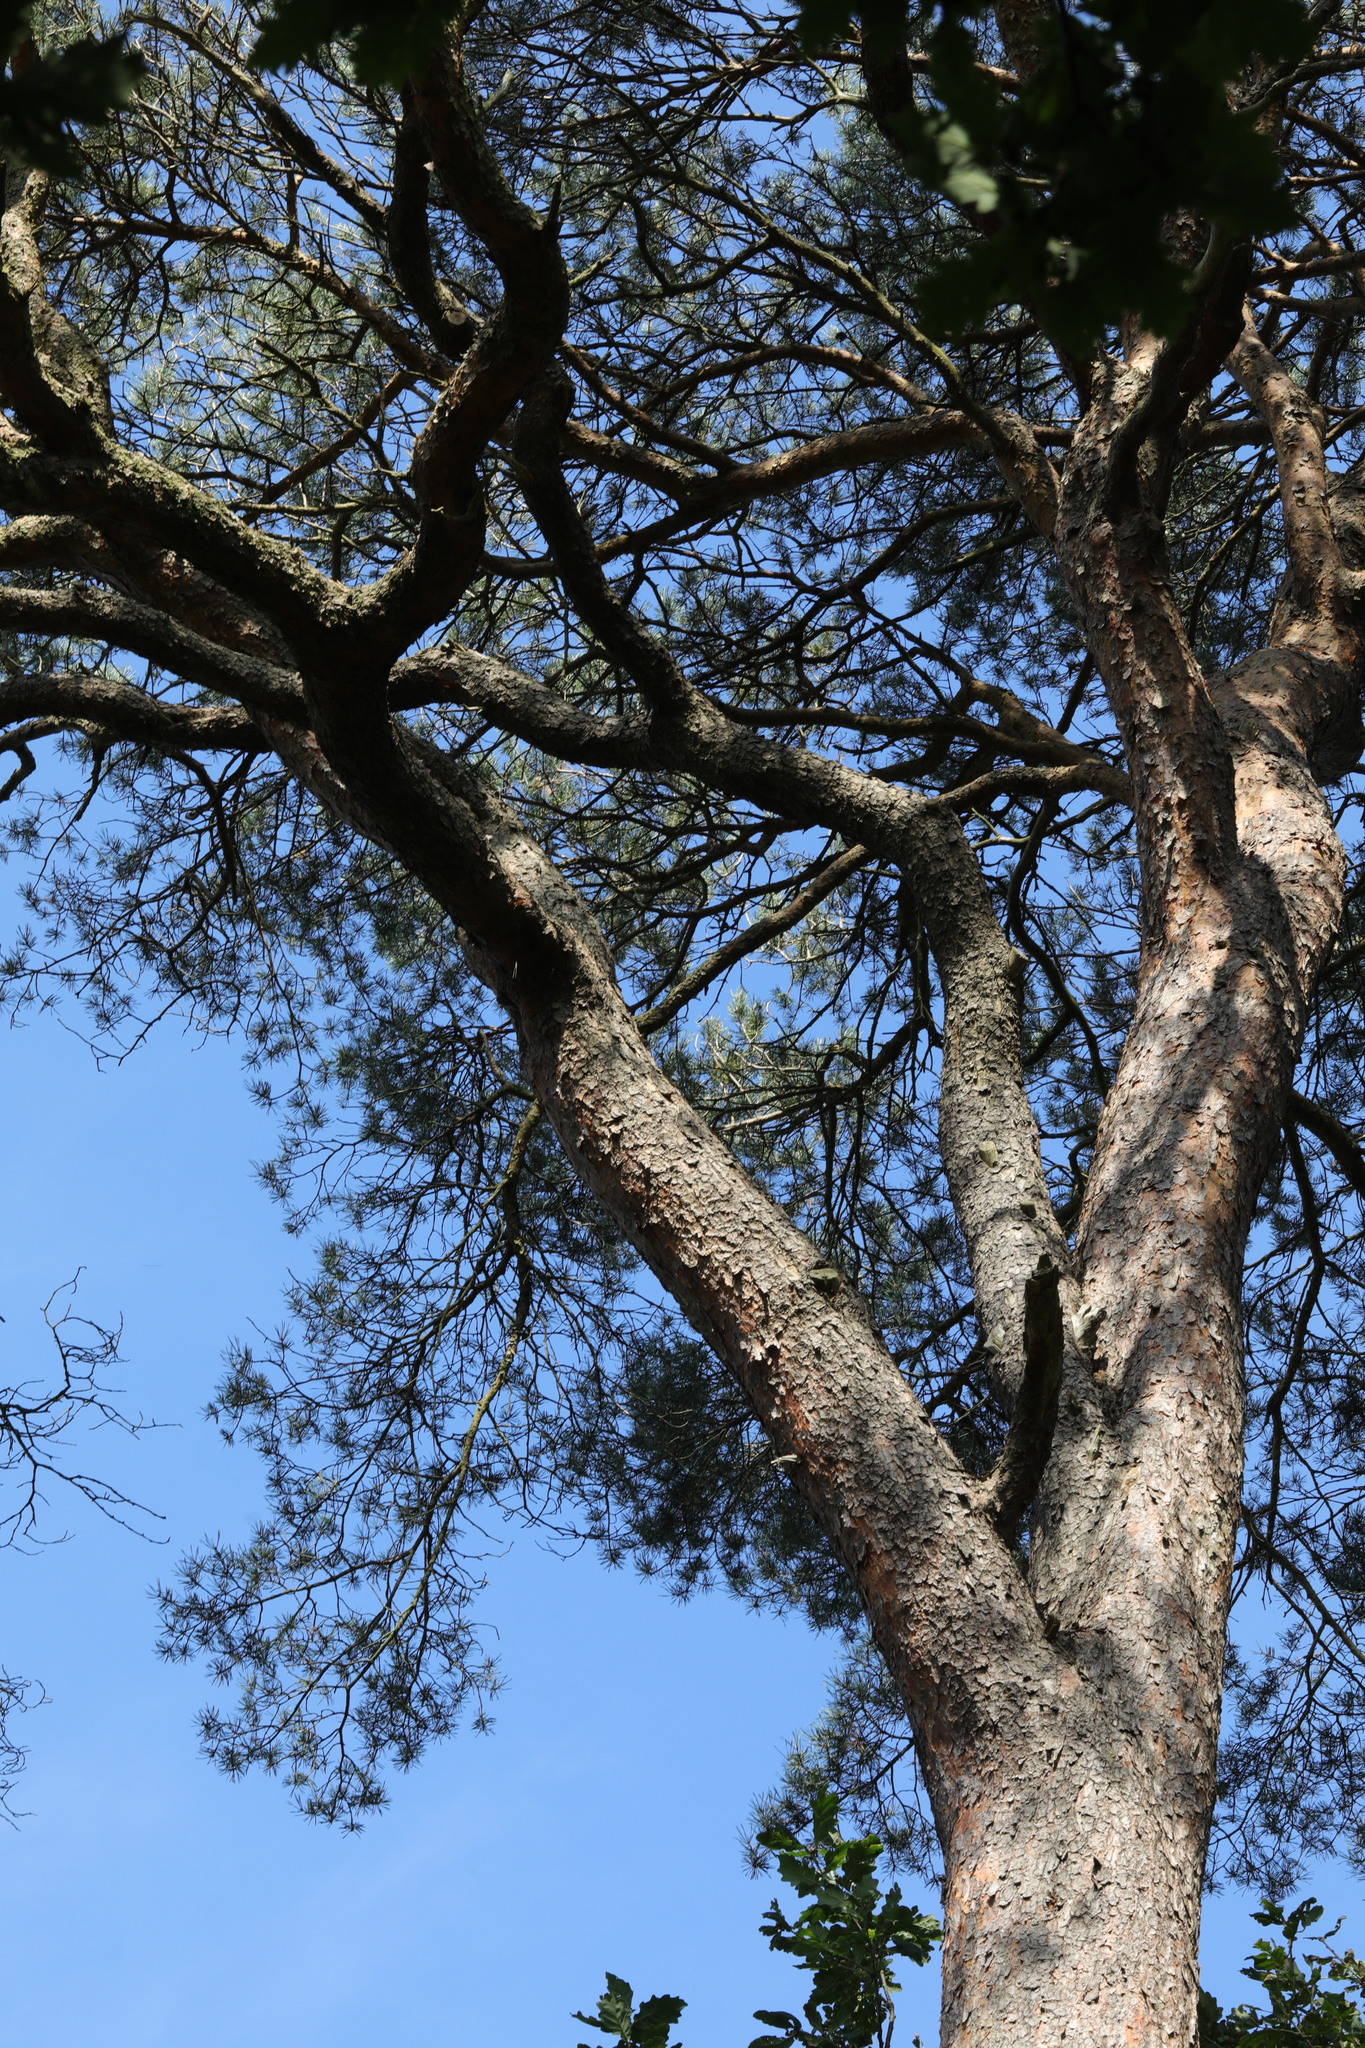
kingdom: Plantae
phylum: Tracheophyta
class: Pinopsida
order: Pinales
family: Pinaceae
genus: Pinus
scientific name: Pinus sylvestris
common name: Scots pine
